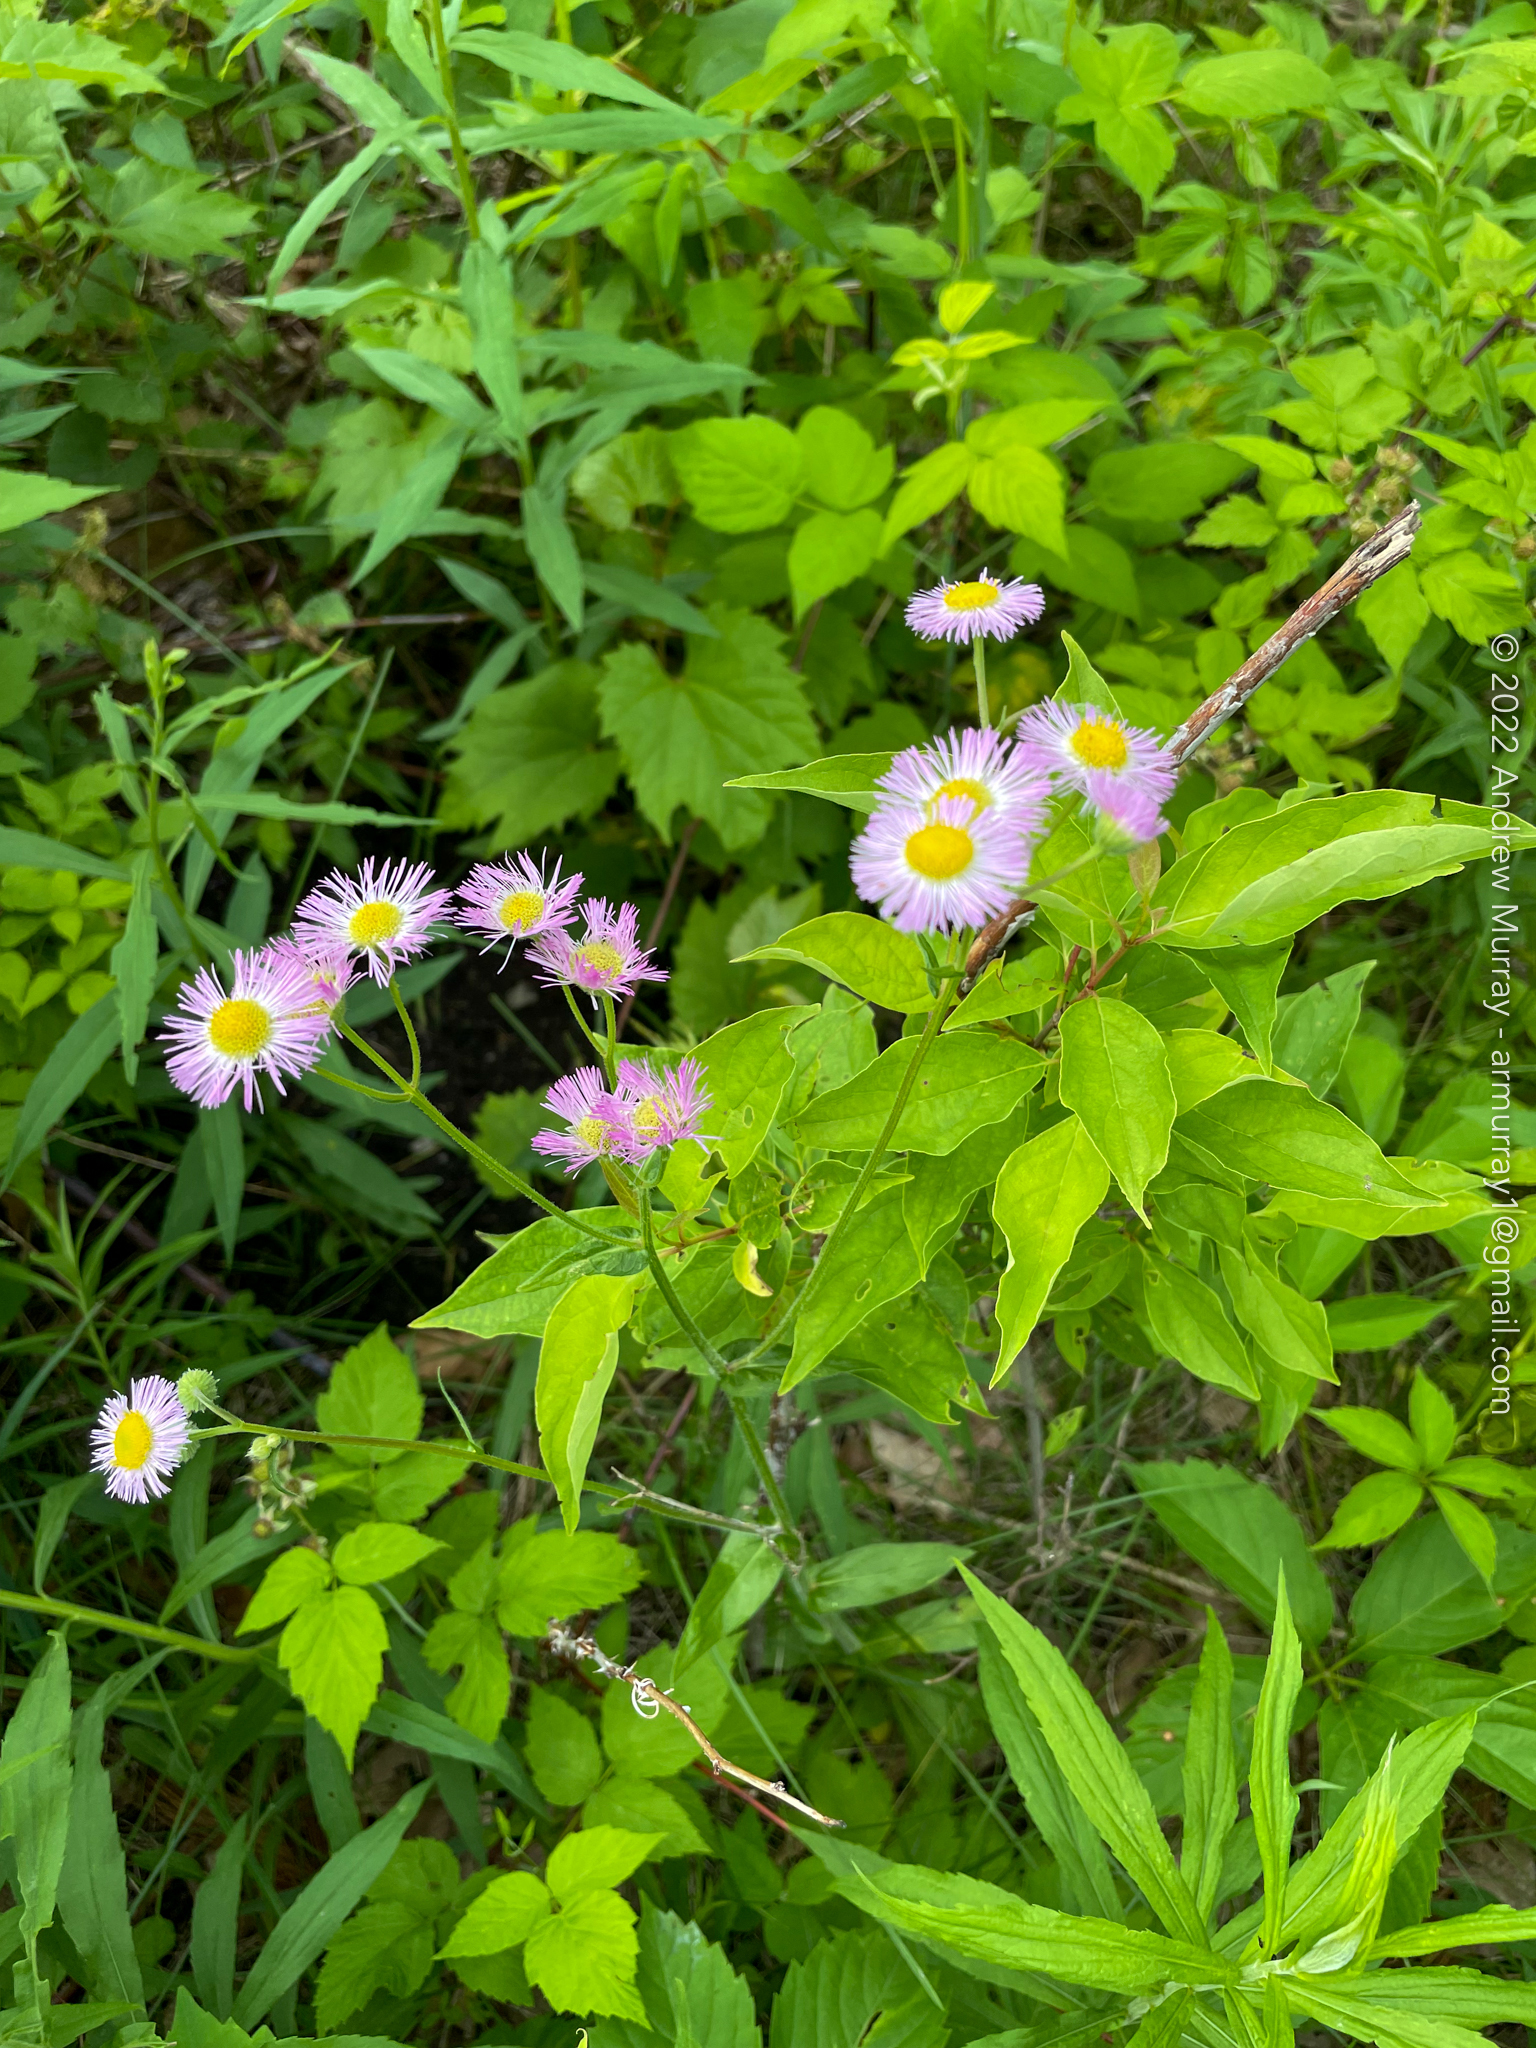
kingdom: Plantae
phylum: Tracheophyta
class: Magnoliopsida
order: Asterales
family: Asteraceae
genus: Erigeron
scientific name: Erigeron philadelphicus
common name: Robin's-plantain
